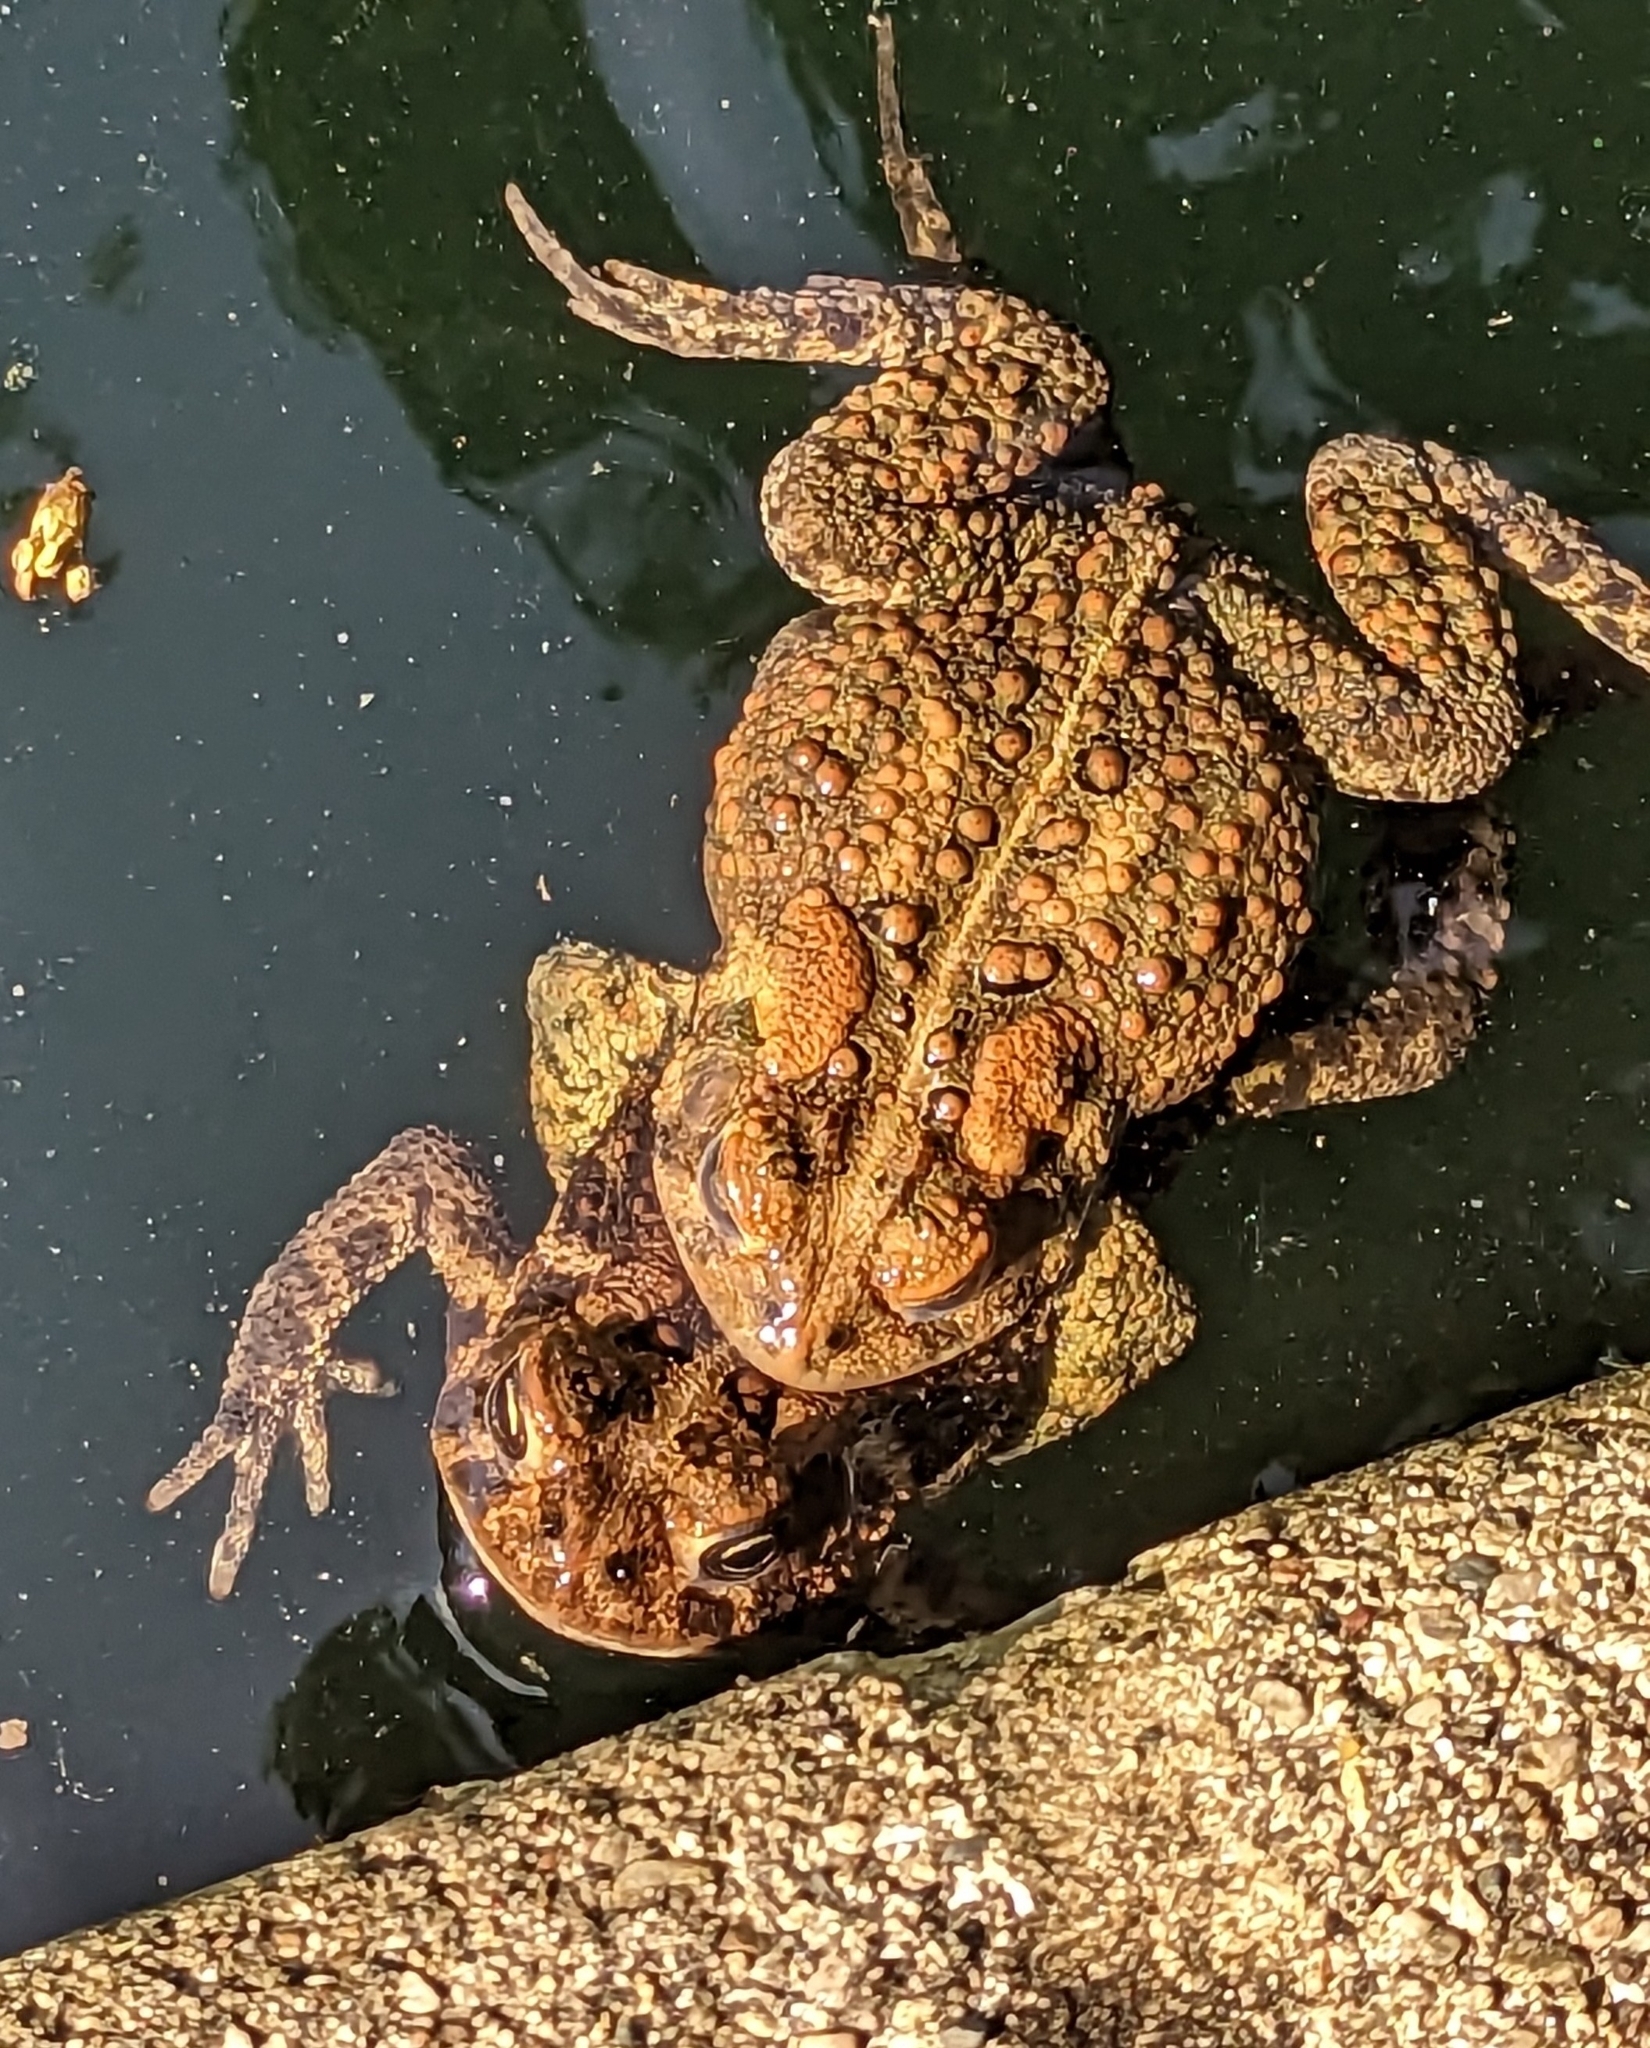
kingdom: Animalia
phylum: Chordata
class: Amphibia
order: Anura
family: Bufonidae
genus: Anaxyrus
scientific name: Anaxyrus americanus
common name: American toad
